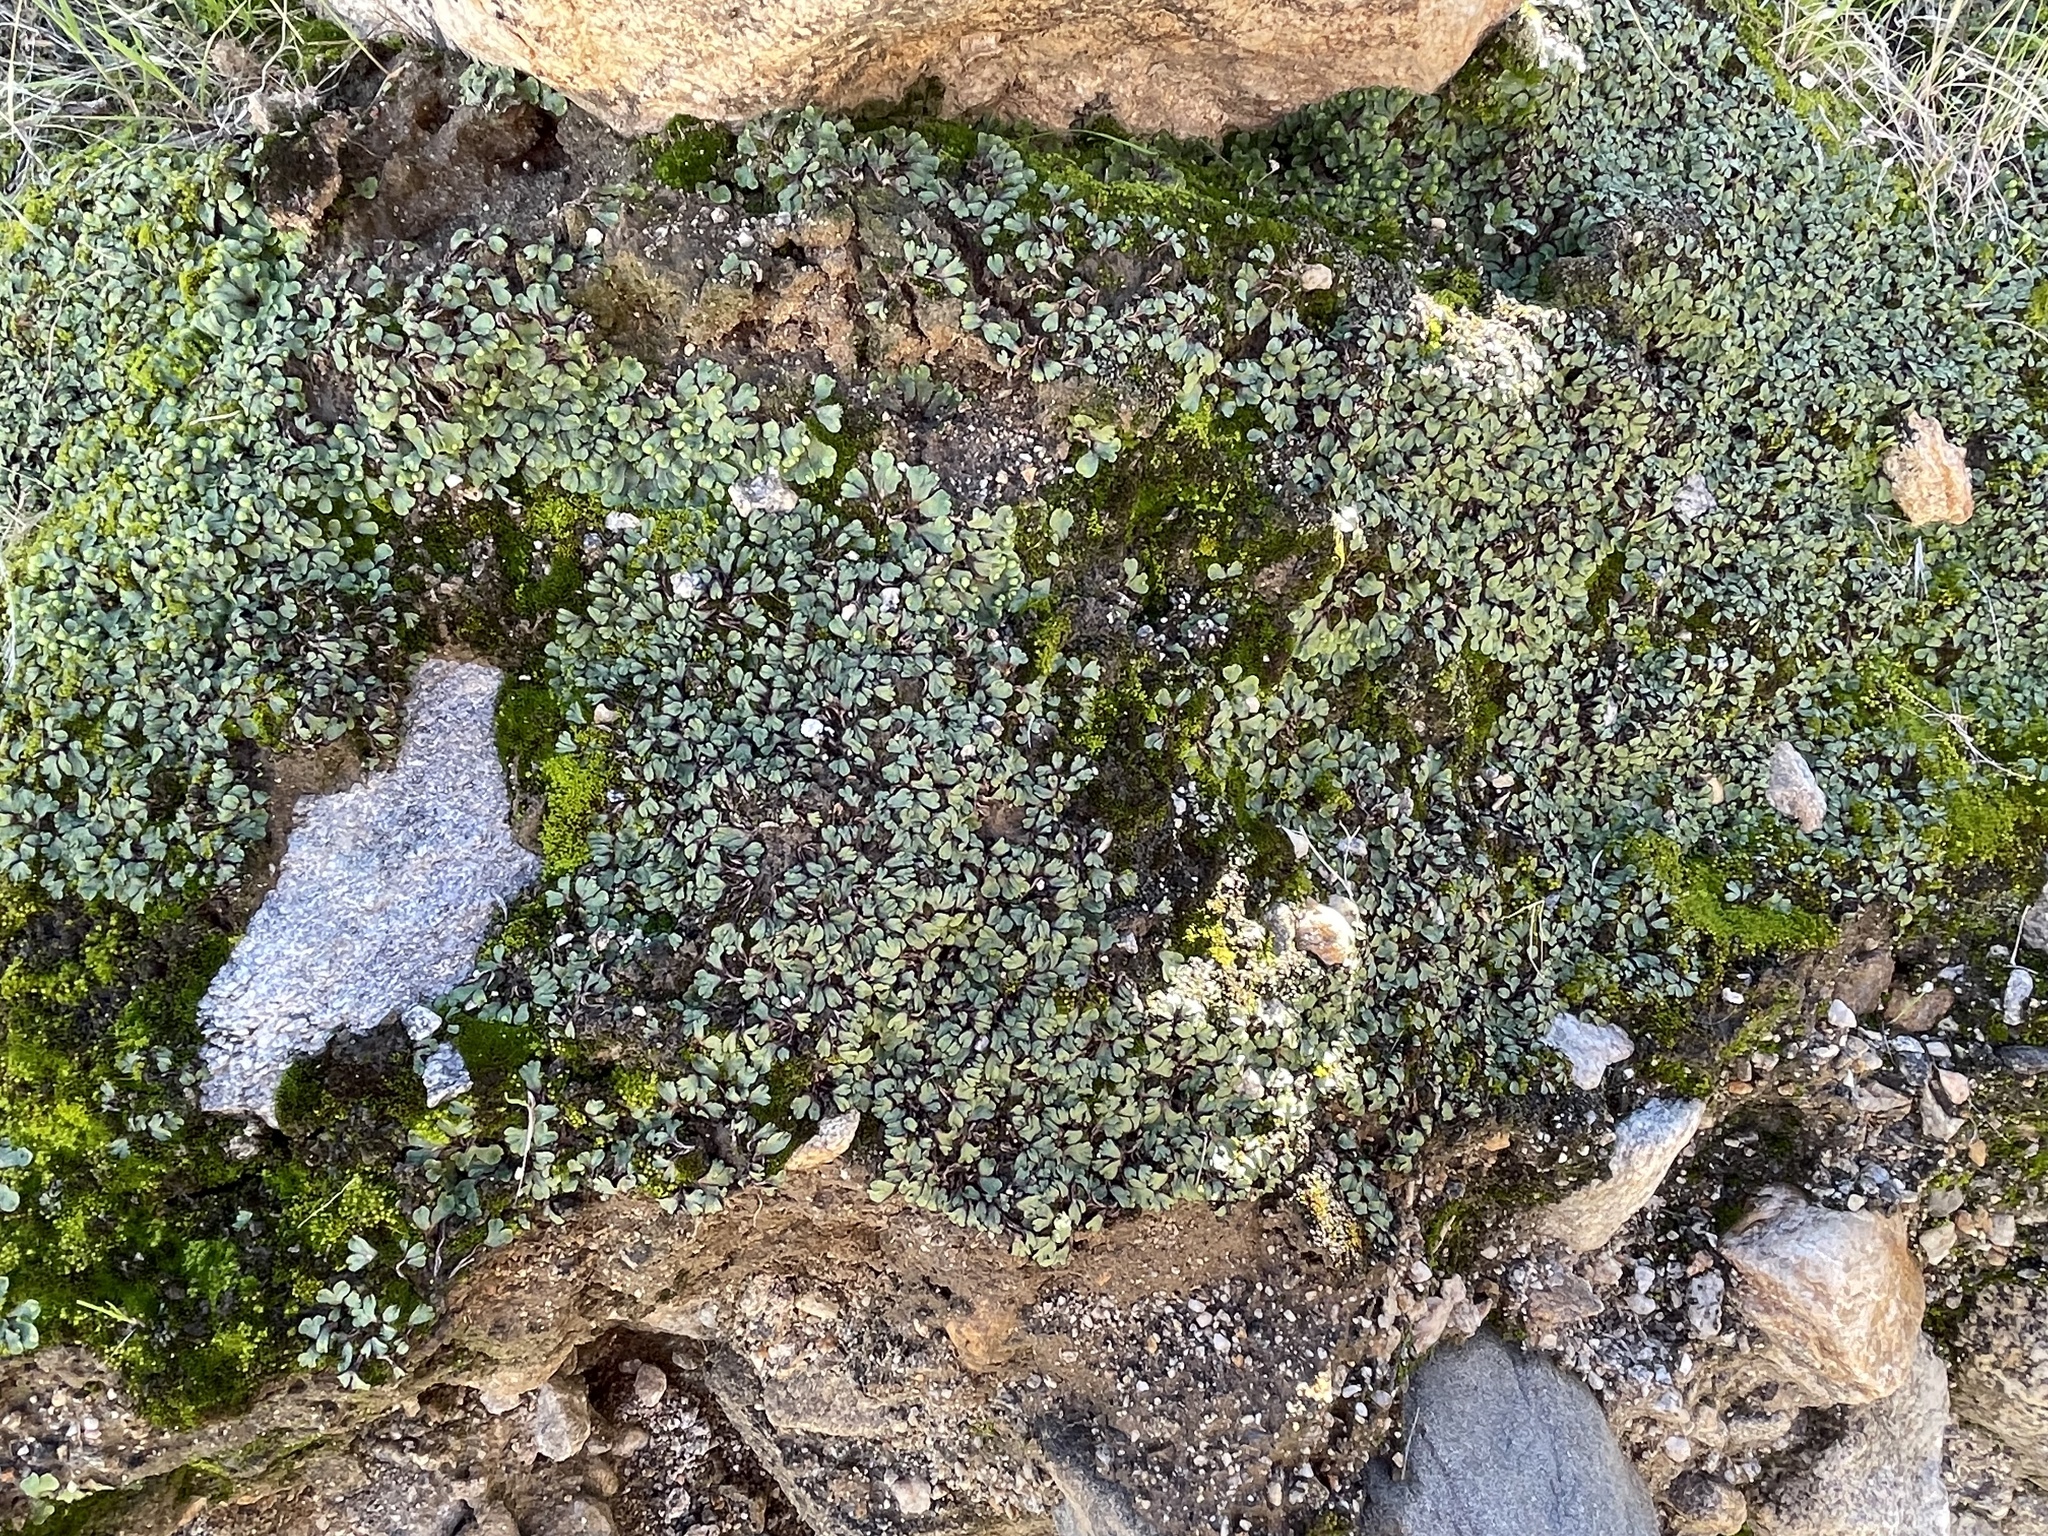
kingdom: Plantae
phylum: Marchantiophyta
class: Marchantiopsida
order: Marchantiales
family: Aytoniaceae
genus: Asterella
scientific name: Asterella californica
